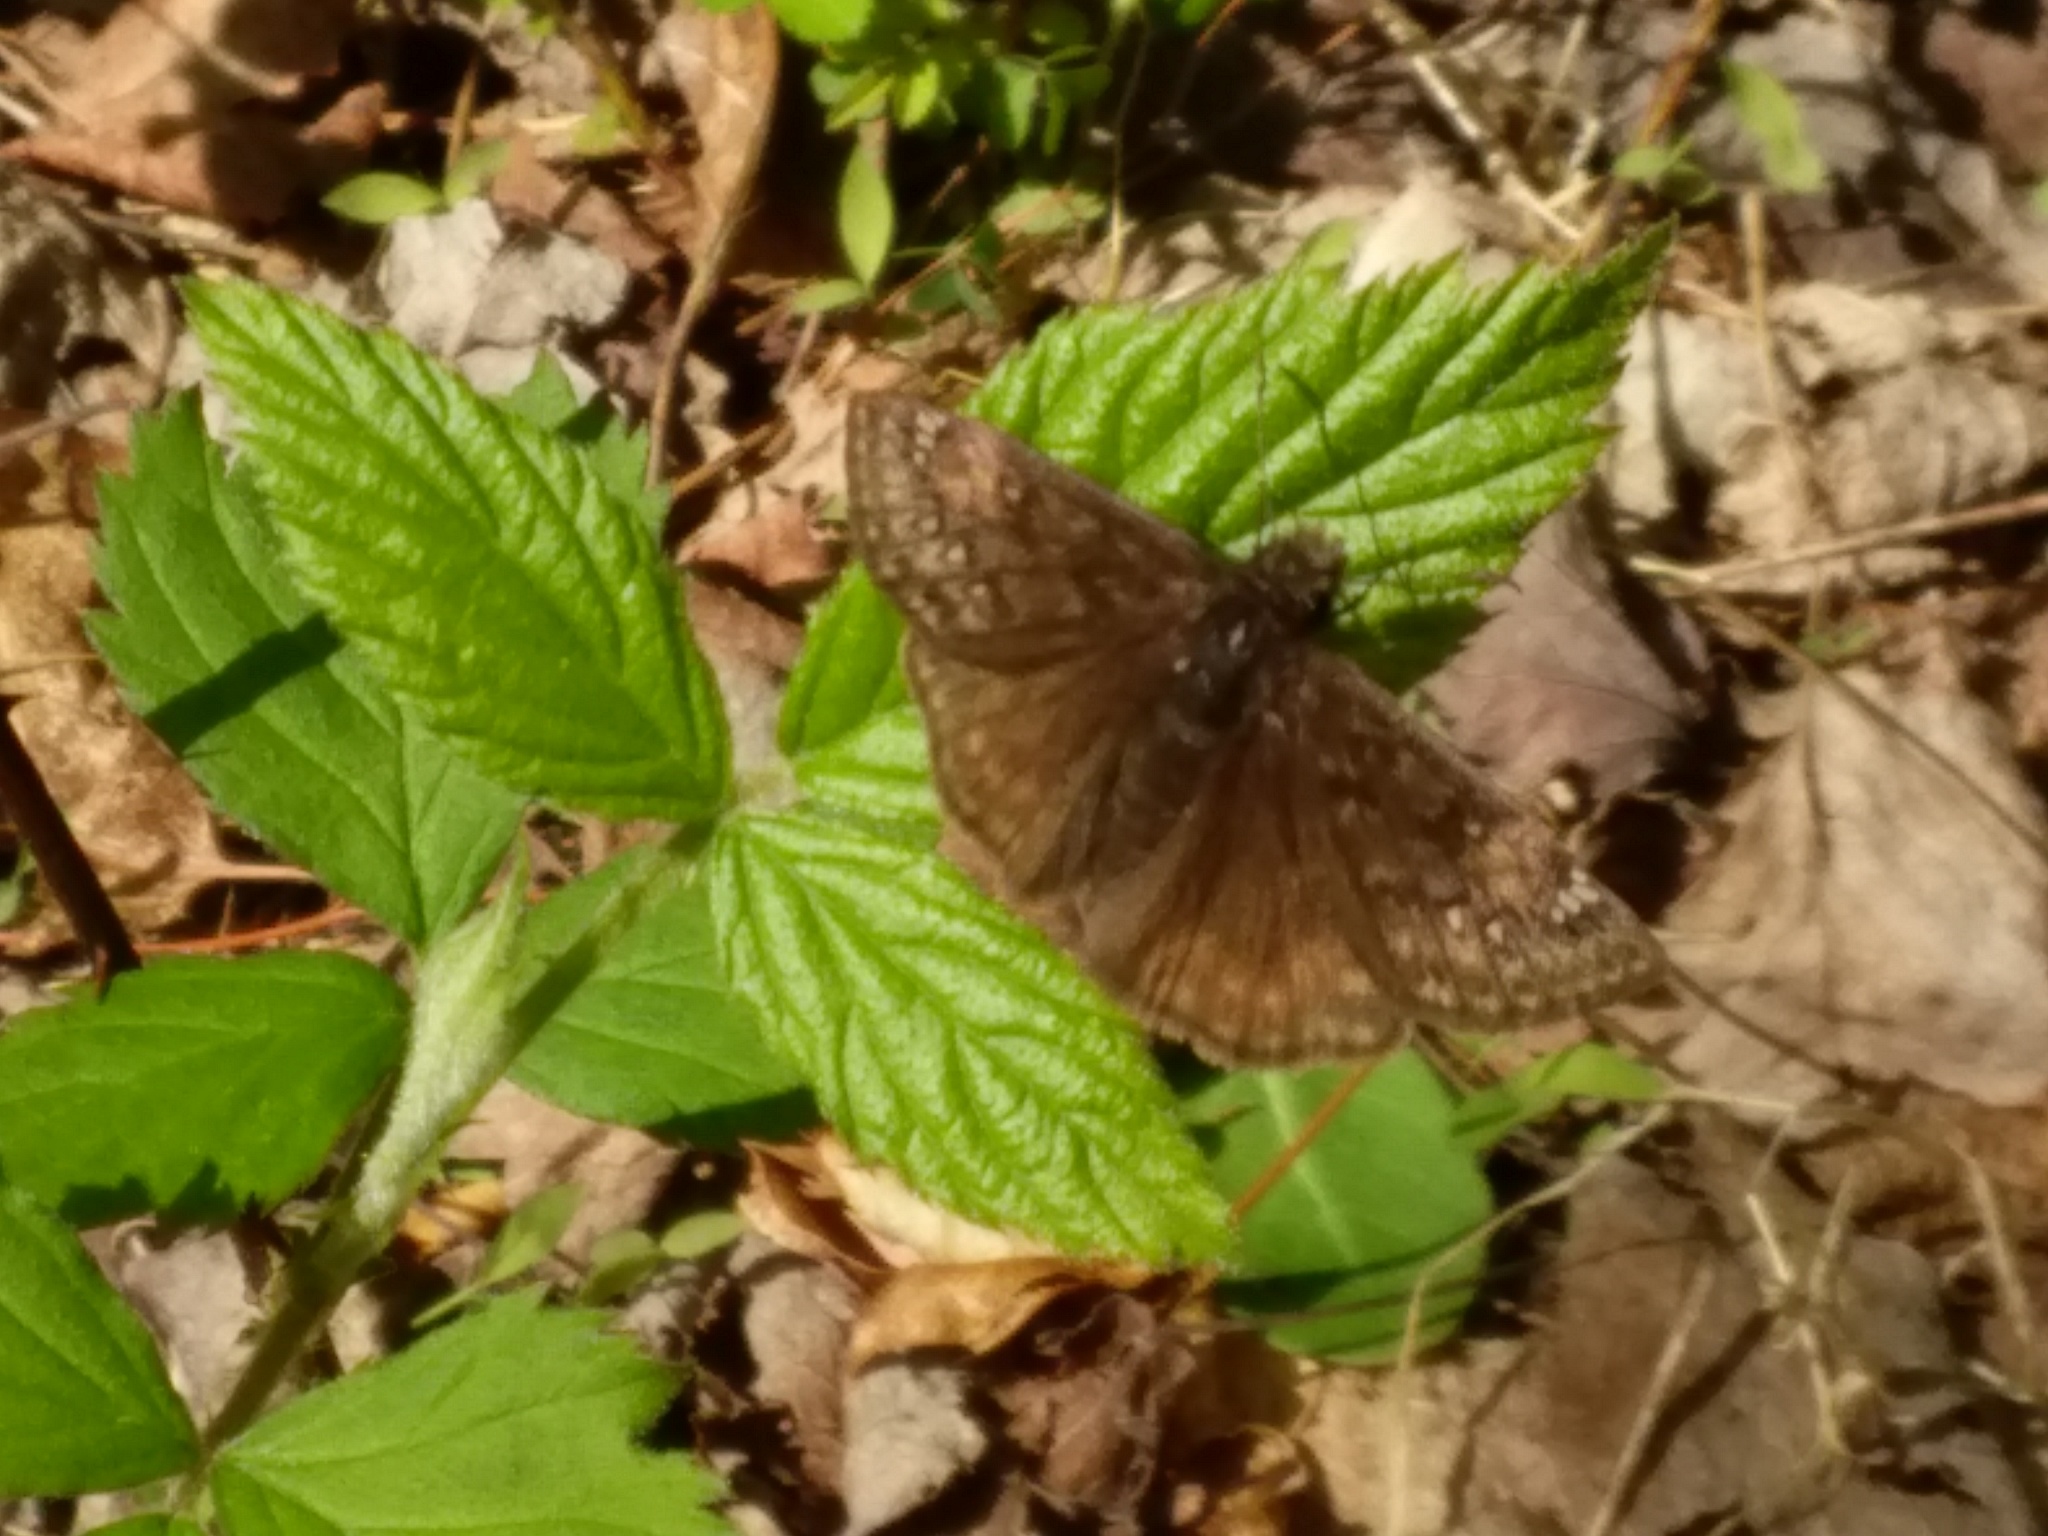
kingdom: Animalia
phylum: Arthropoda
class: Insecta
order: Lepidoptera
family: Hesperiidae
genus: Erynnis
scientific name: Erynnis juvenalis
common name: Juvenal's duskywing
